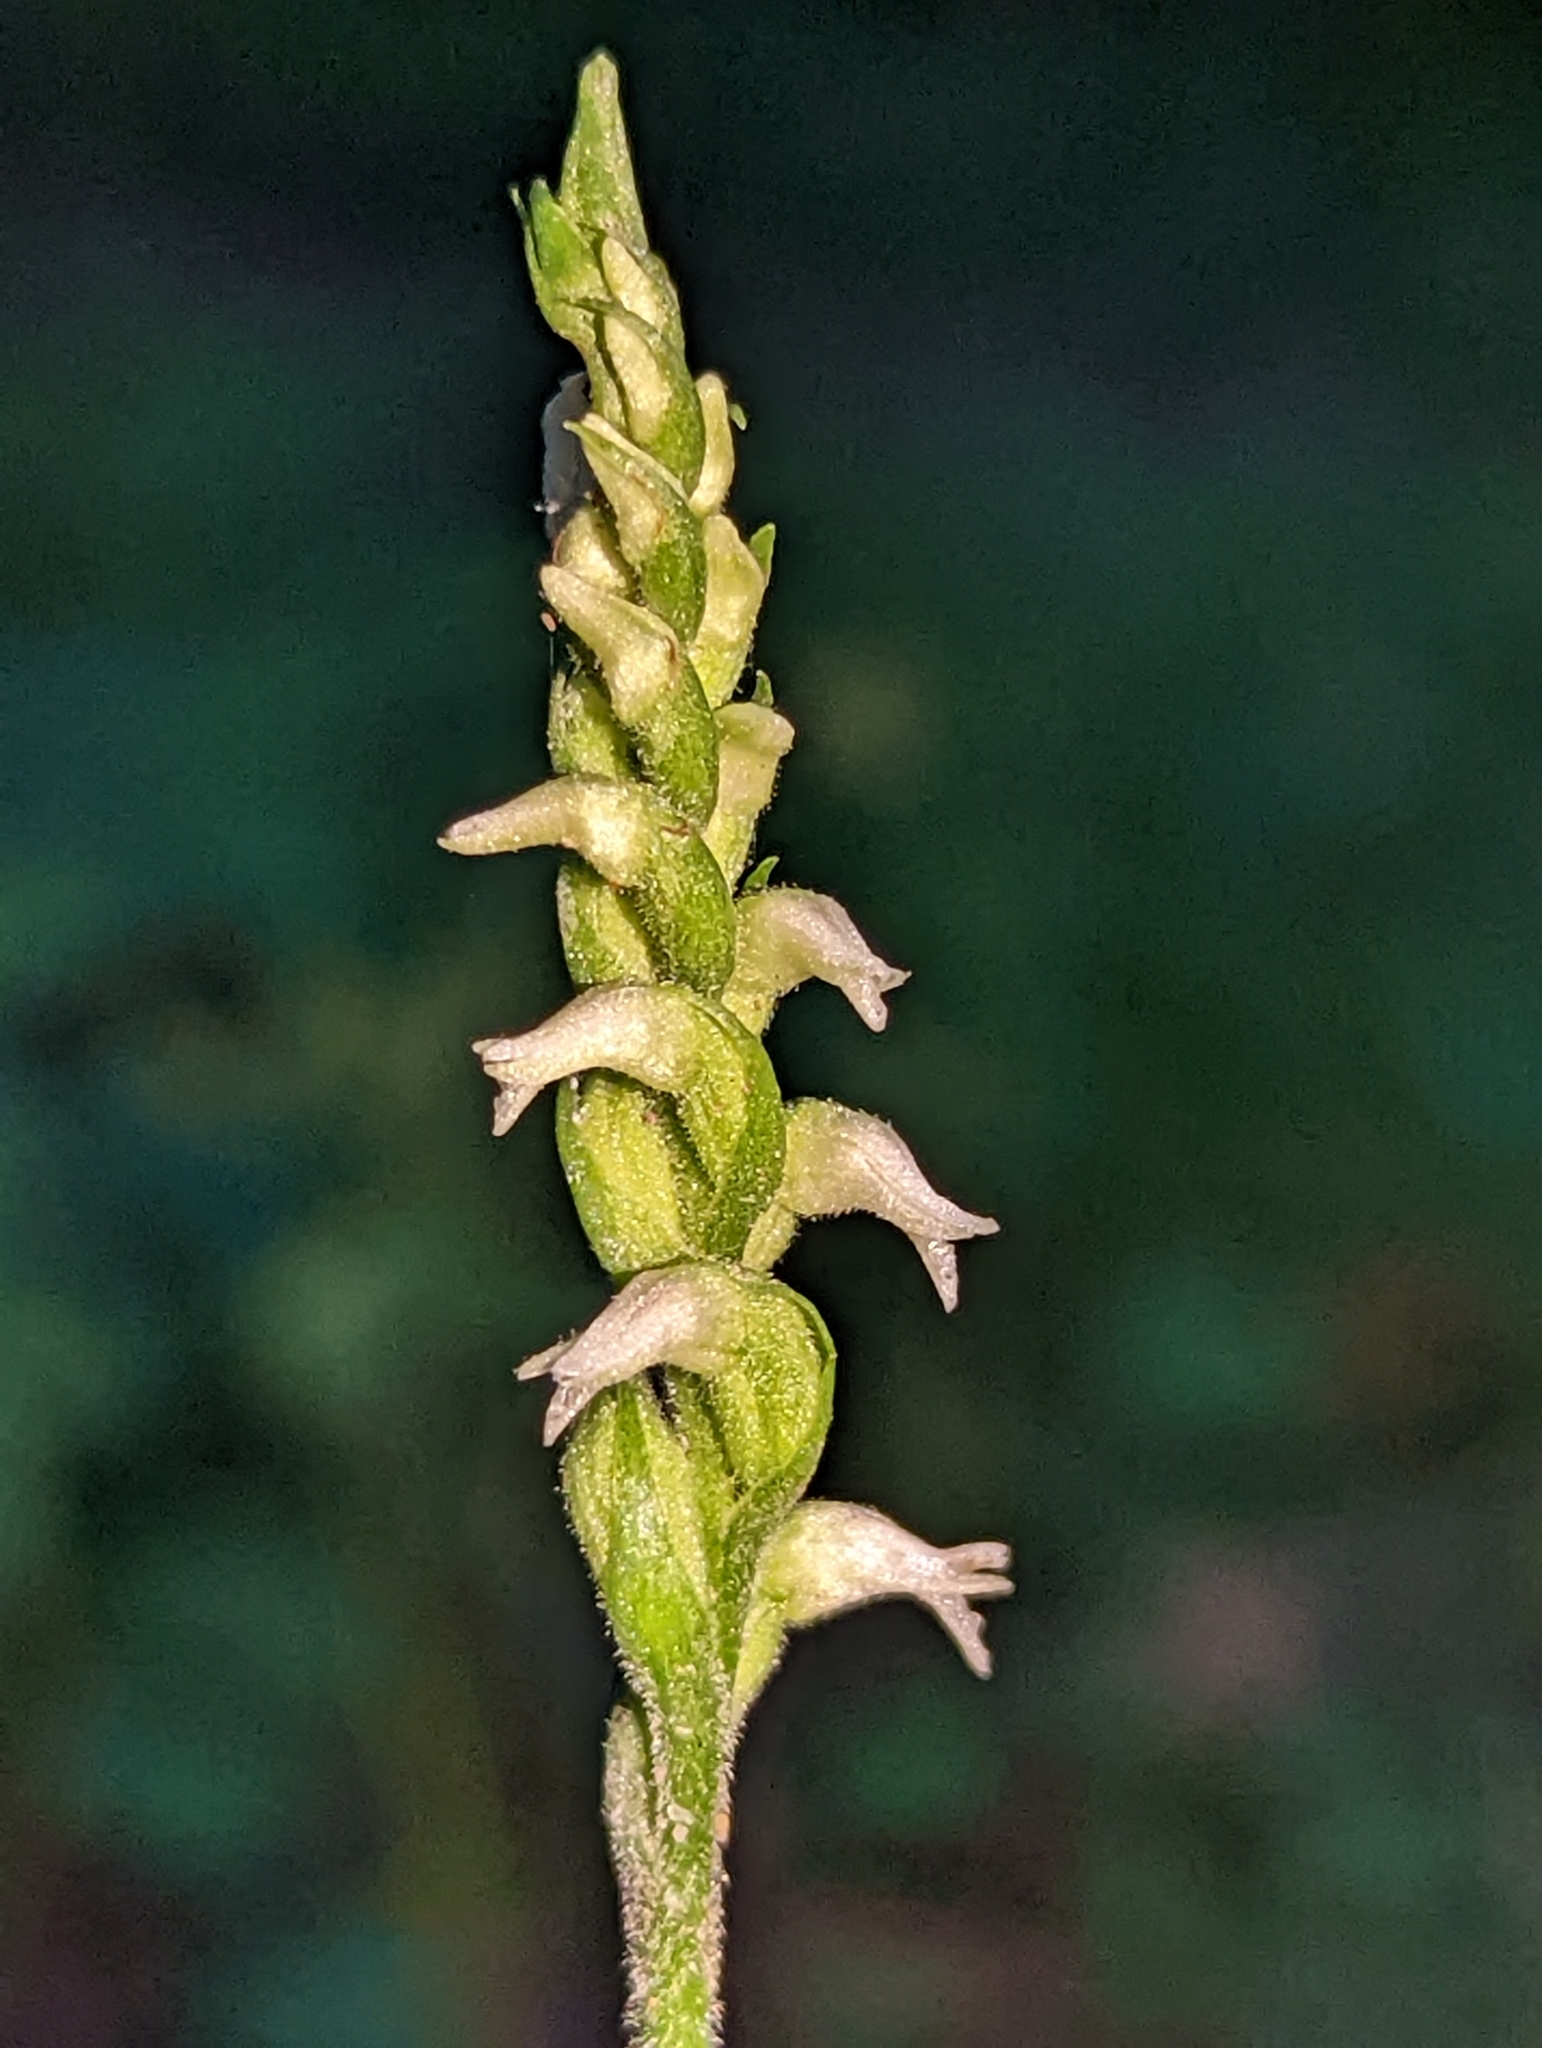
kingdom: Plantae
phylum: Tracheophyta
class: Liliopsida
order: Asparagales
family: Orchidaceae
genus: Spiranthes
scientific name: Spiranthes ovalis
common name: October ladies'-tresses
